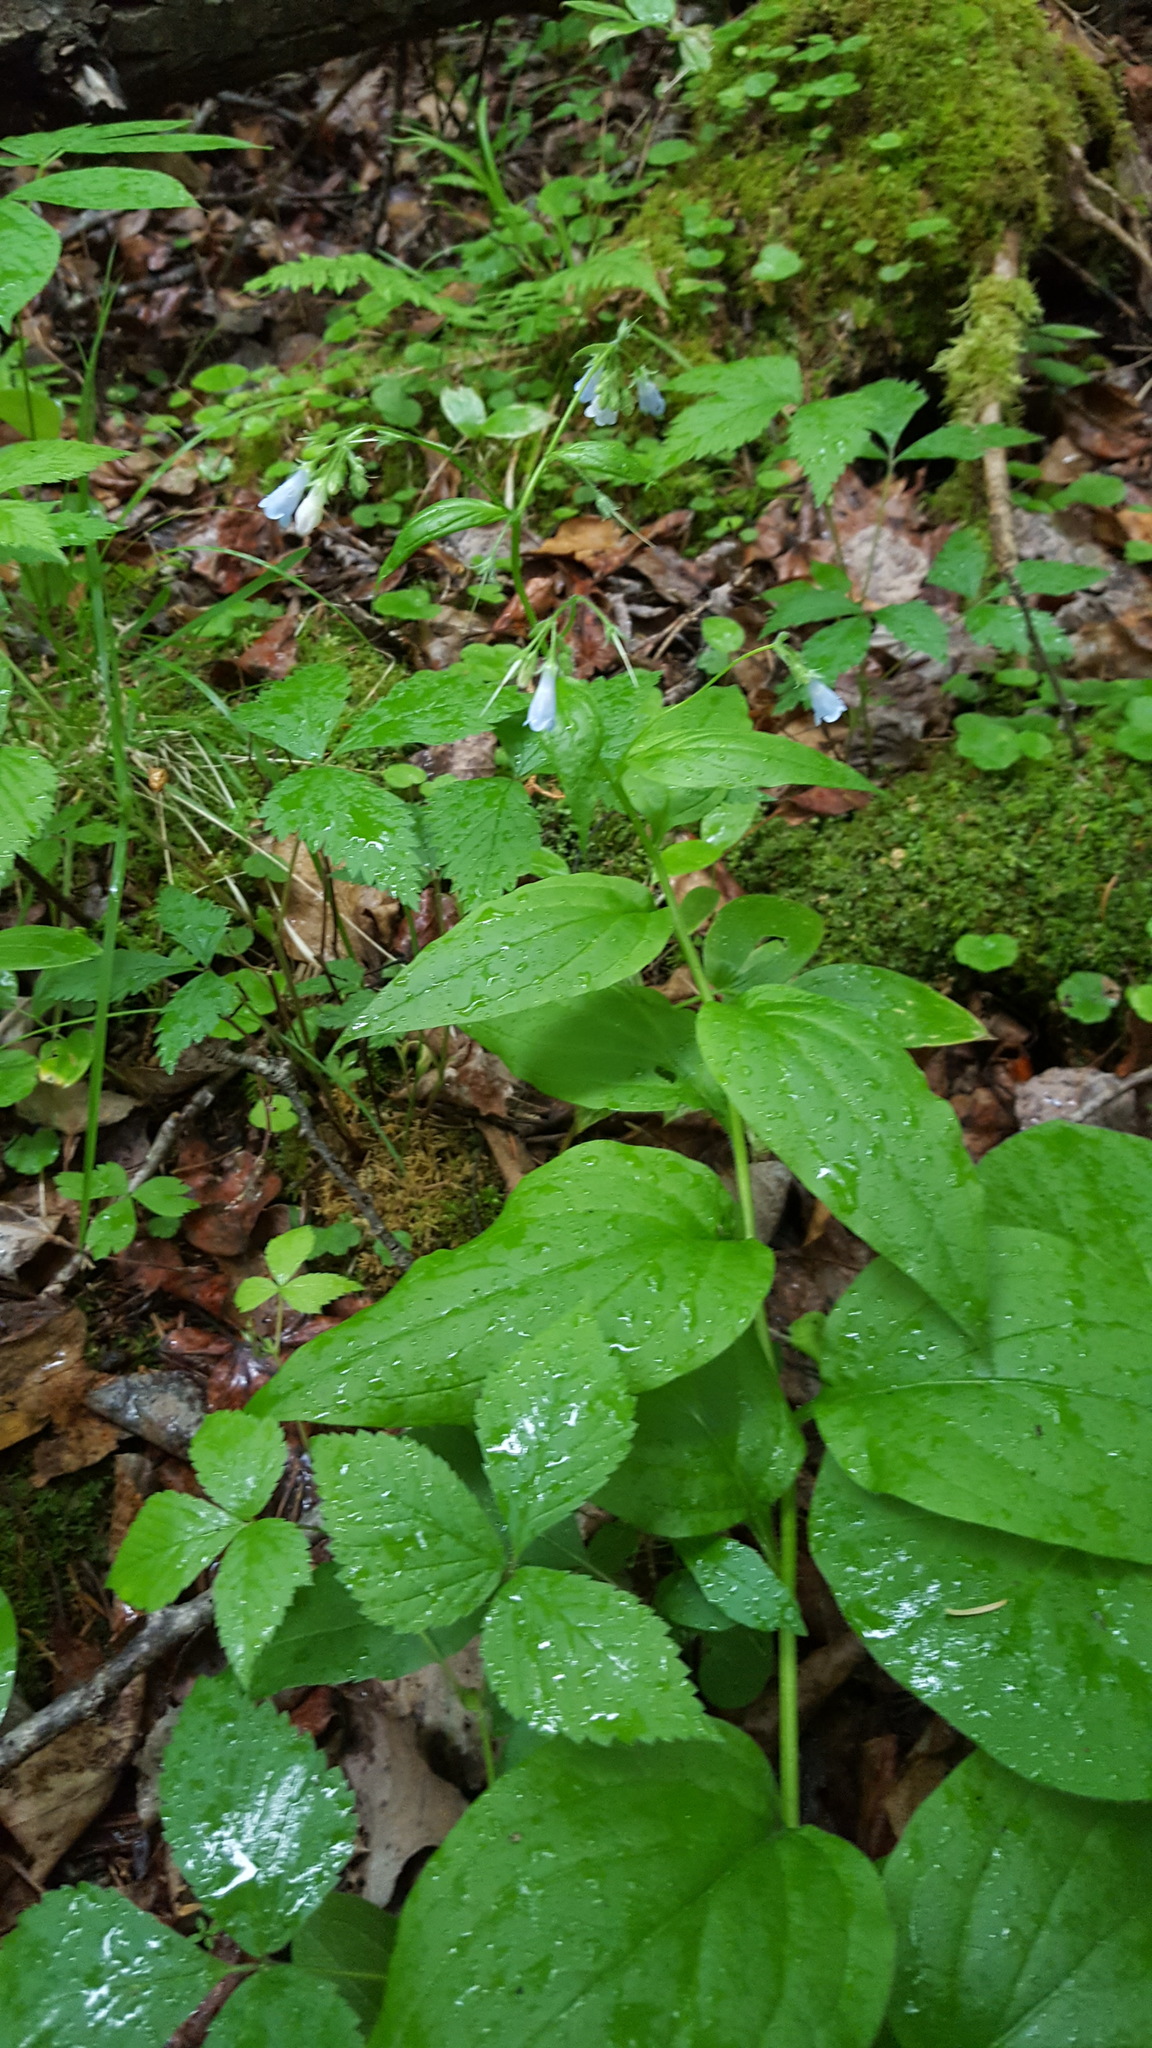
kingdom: Plantae
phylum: Tracheophyta
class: Magnoliopsida
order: Boraginales
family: Boraginaceae
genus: Mertensia
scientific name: Mertensia paniculata
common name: Panicled bluebells
